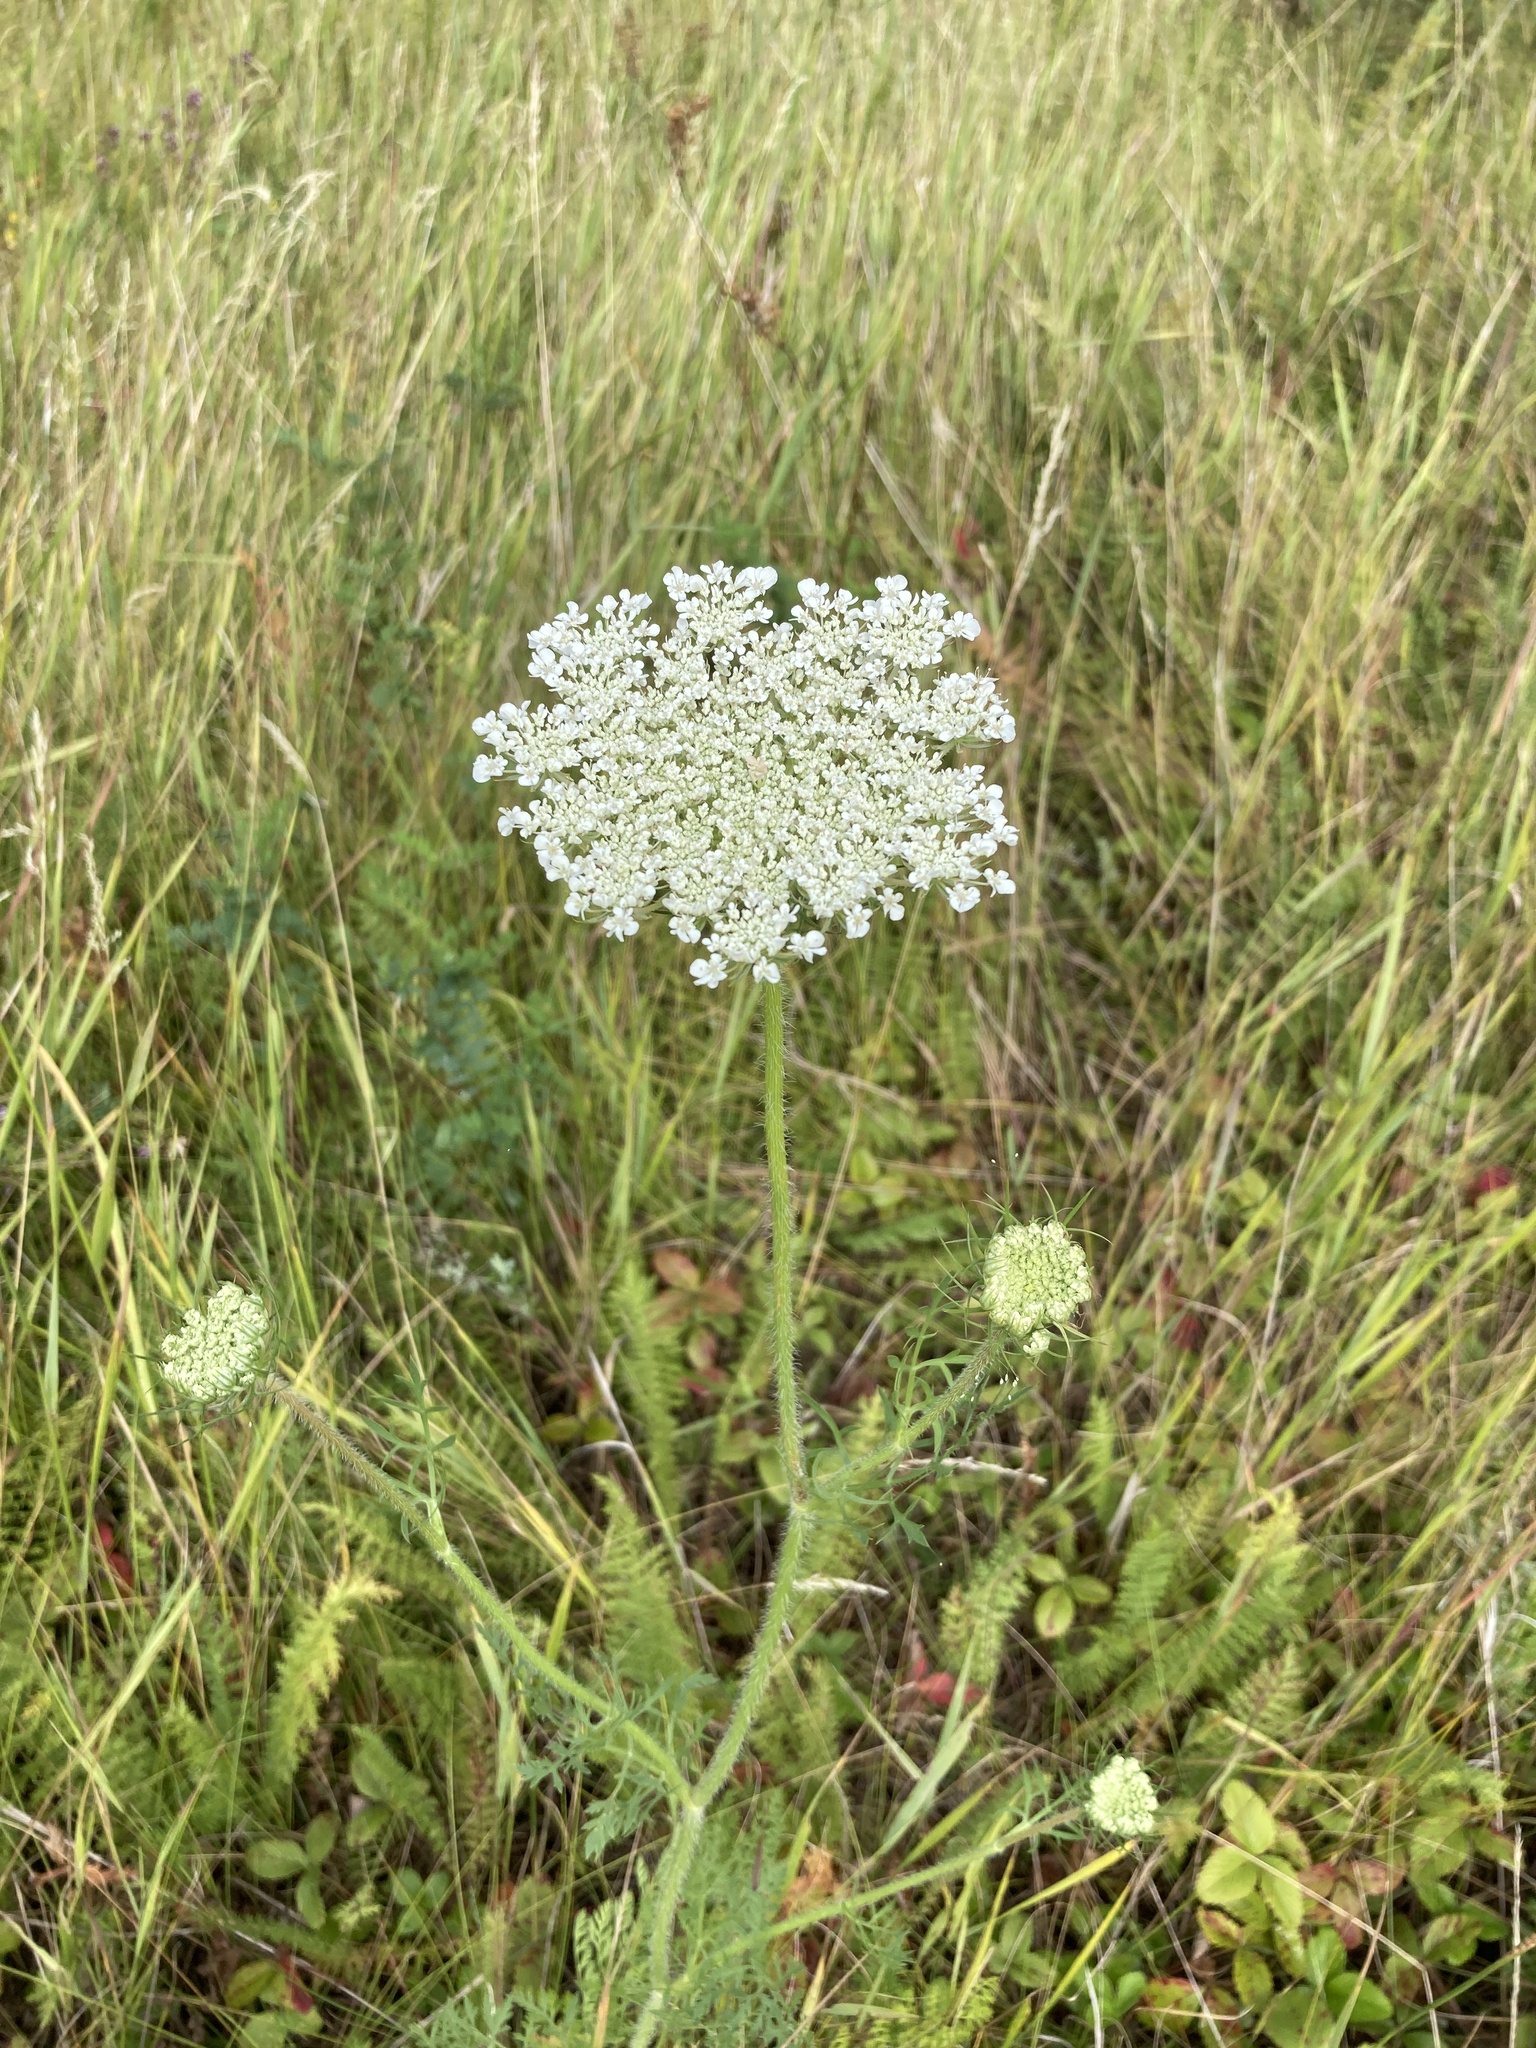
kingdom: Plantae
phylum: Tracheophyta
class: Magnoliopsida
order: Apiales
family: Apiaceae
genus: Daucus
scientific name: Daucus carota
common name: Wild carrot
